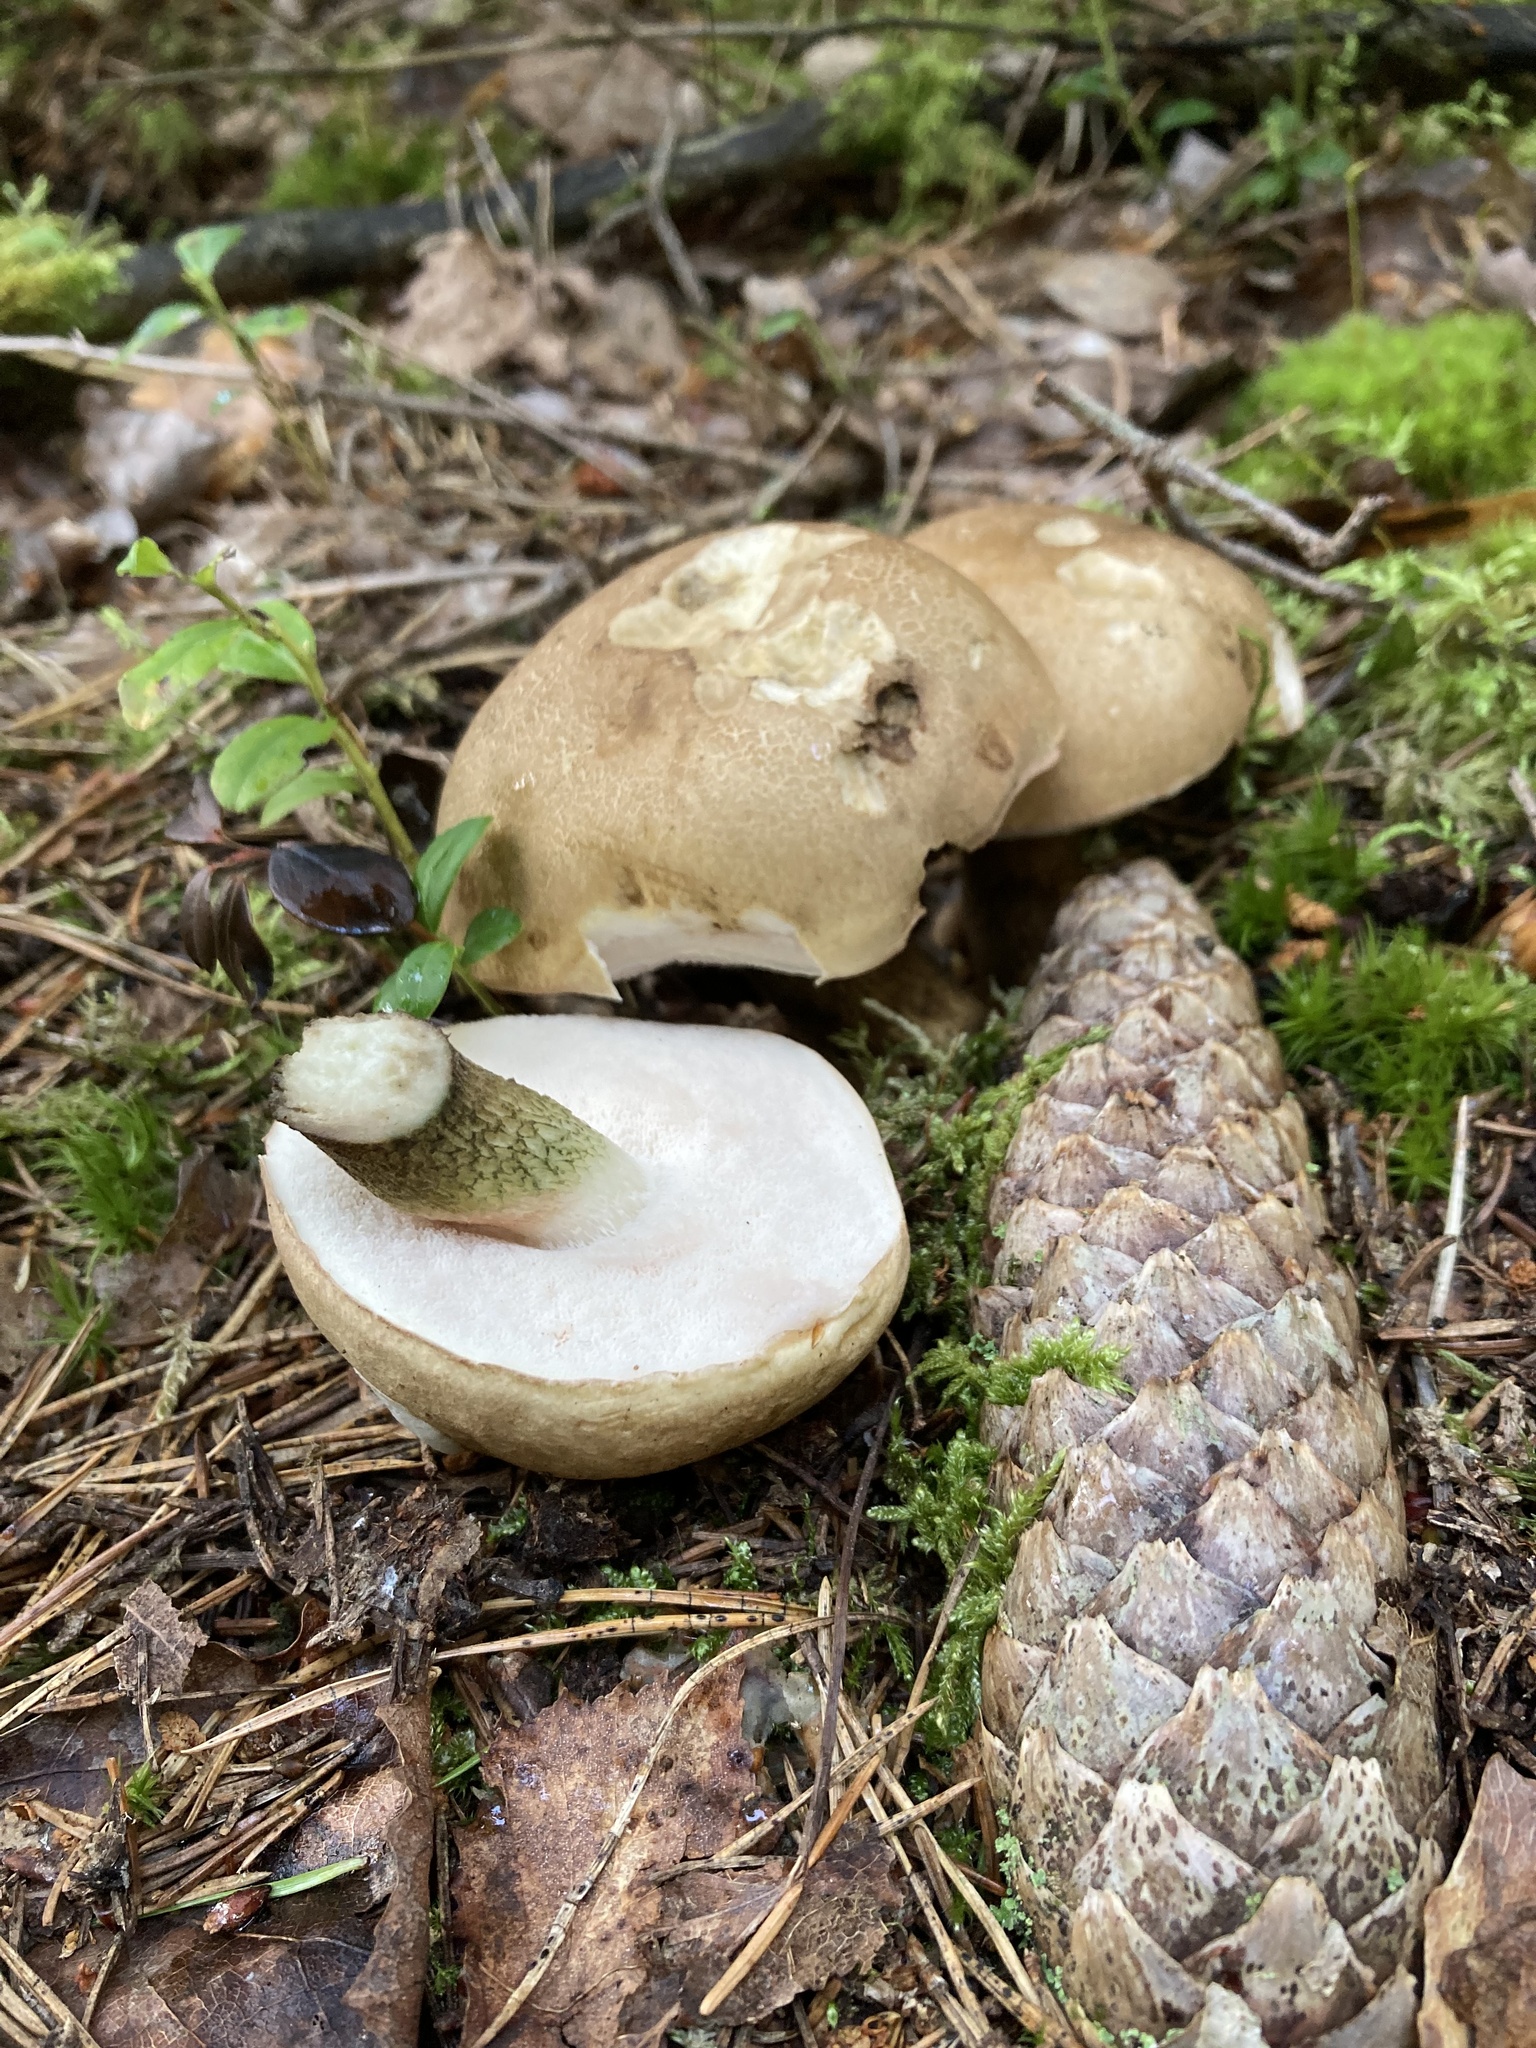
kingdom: Fungi
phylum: Basidiomycota
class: Agaricomycetes
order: Boletales
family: Boletaceae
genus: Tylopilus
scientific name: Tylopilus felleus
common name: Bitter bolete
